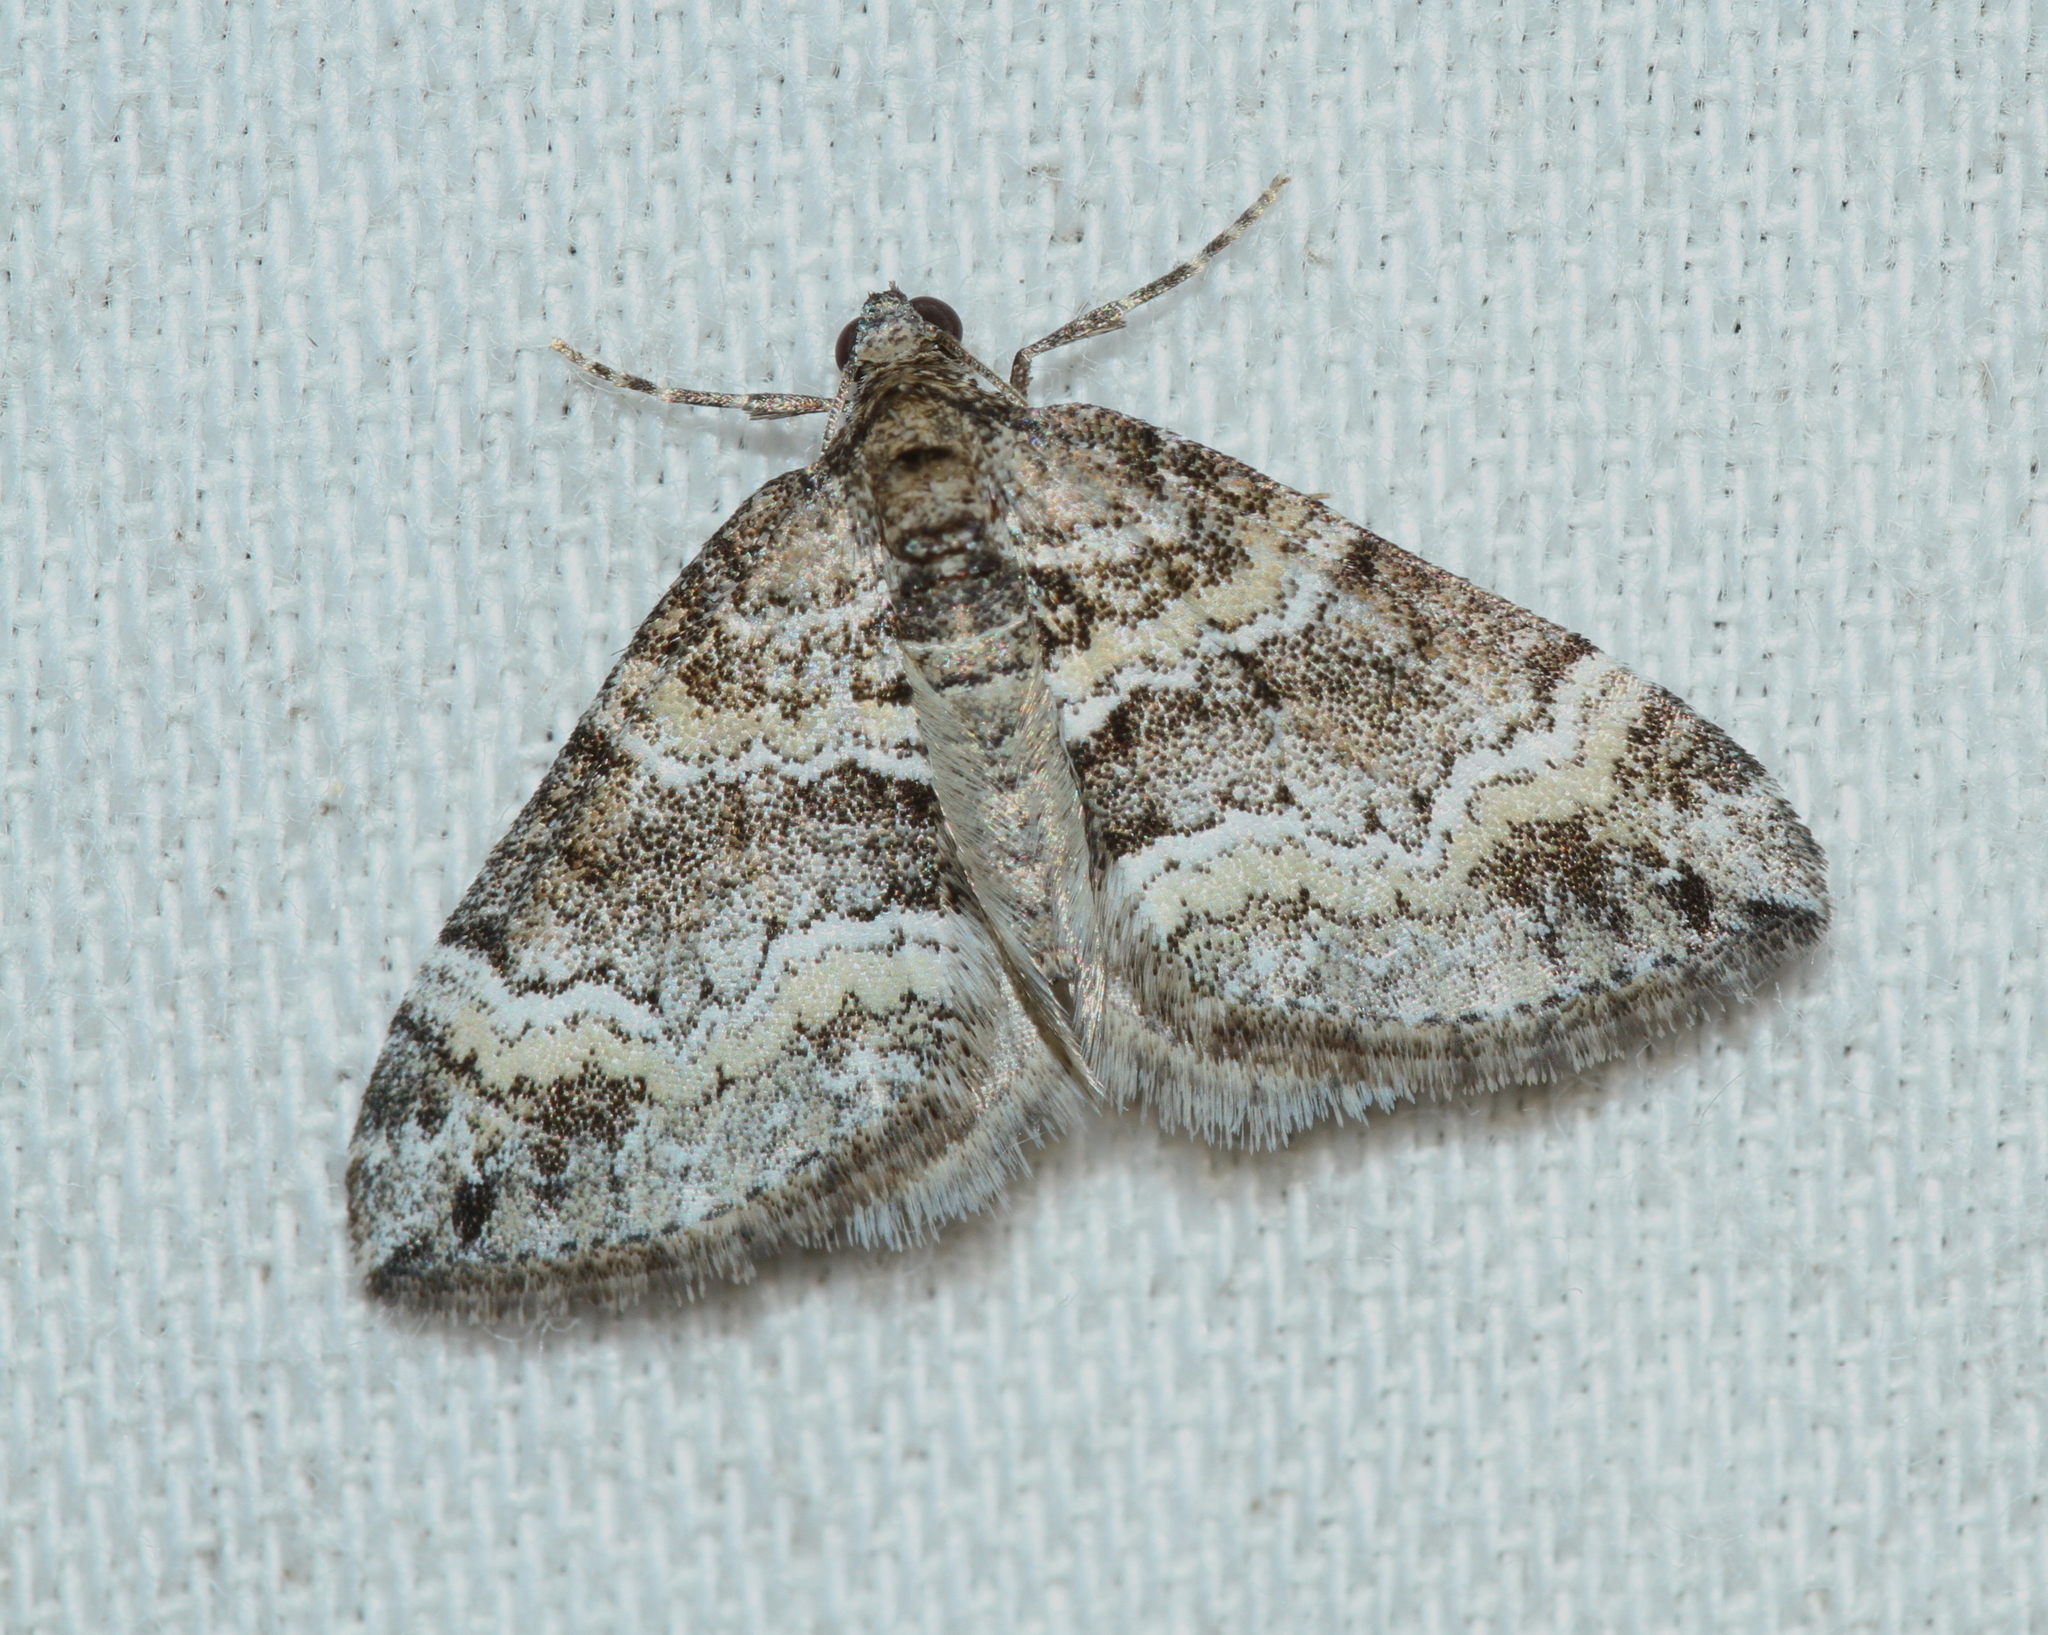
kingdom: Animalia
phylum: Arthropoda
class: Insecta
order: Lepidoptera
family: Geometridae
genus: Perizoma
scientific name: Perizoma bifaciata
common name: Barred rivulet
